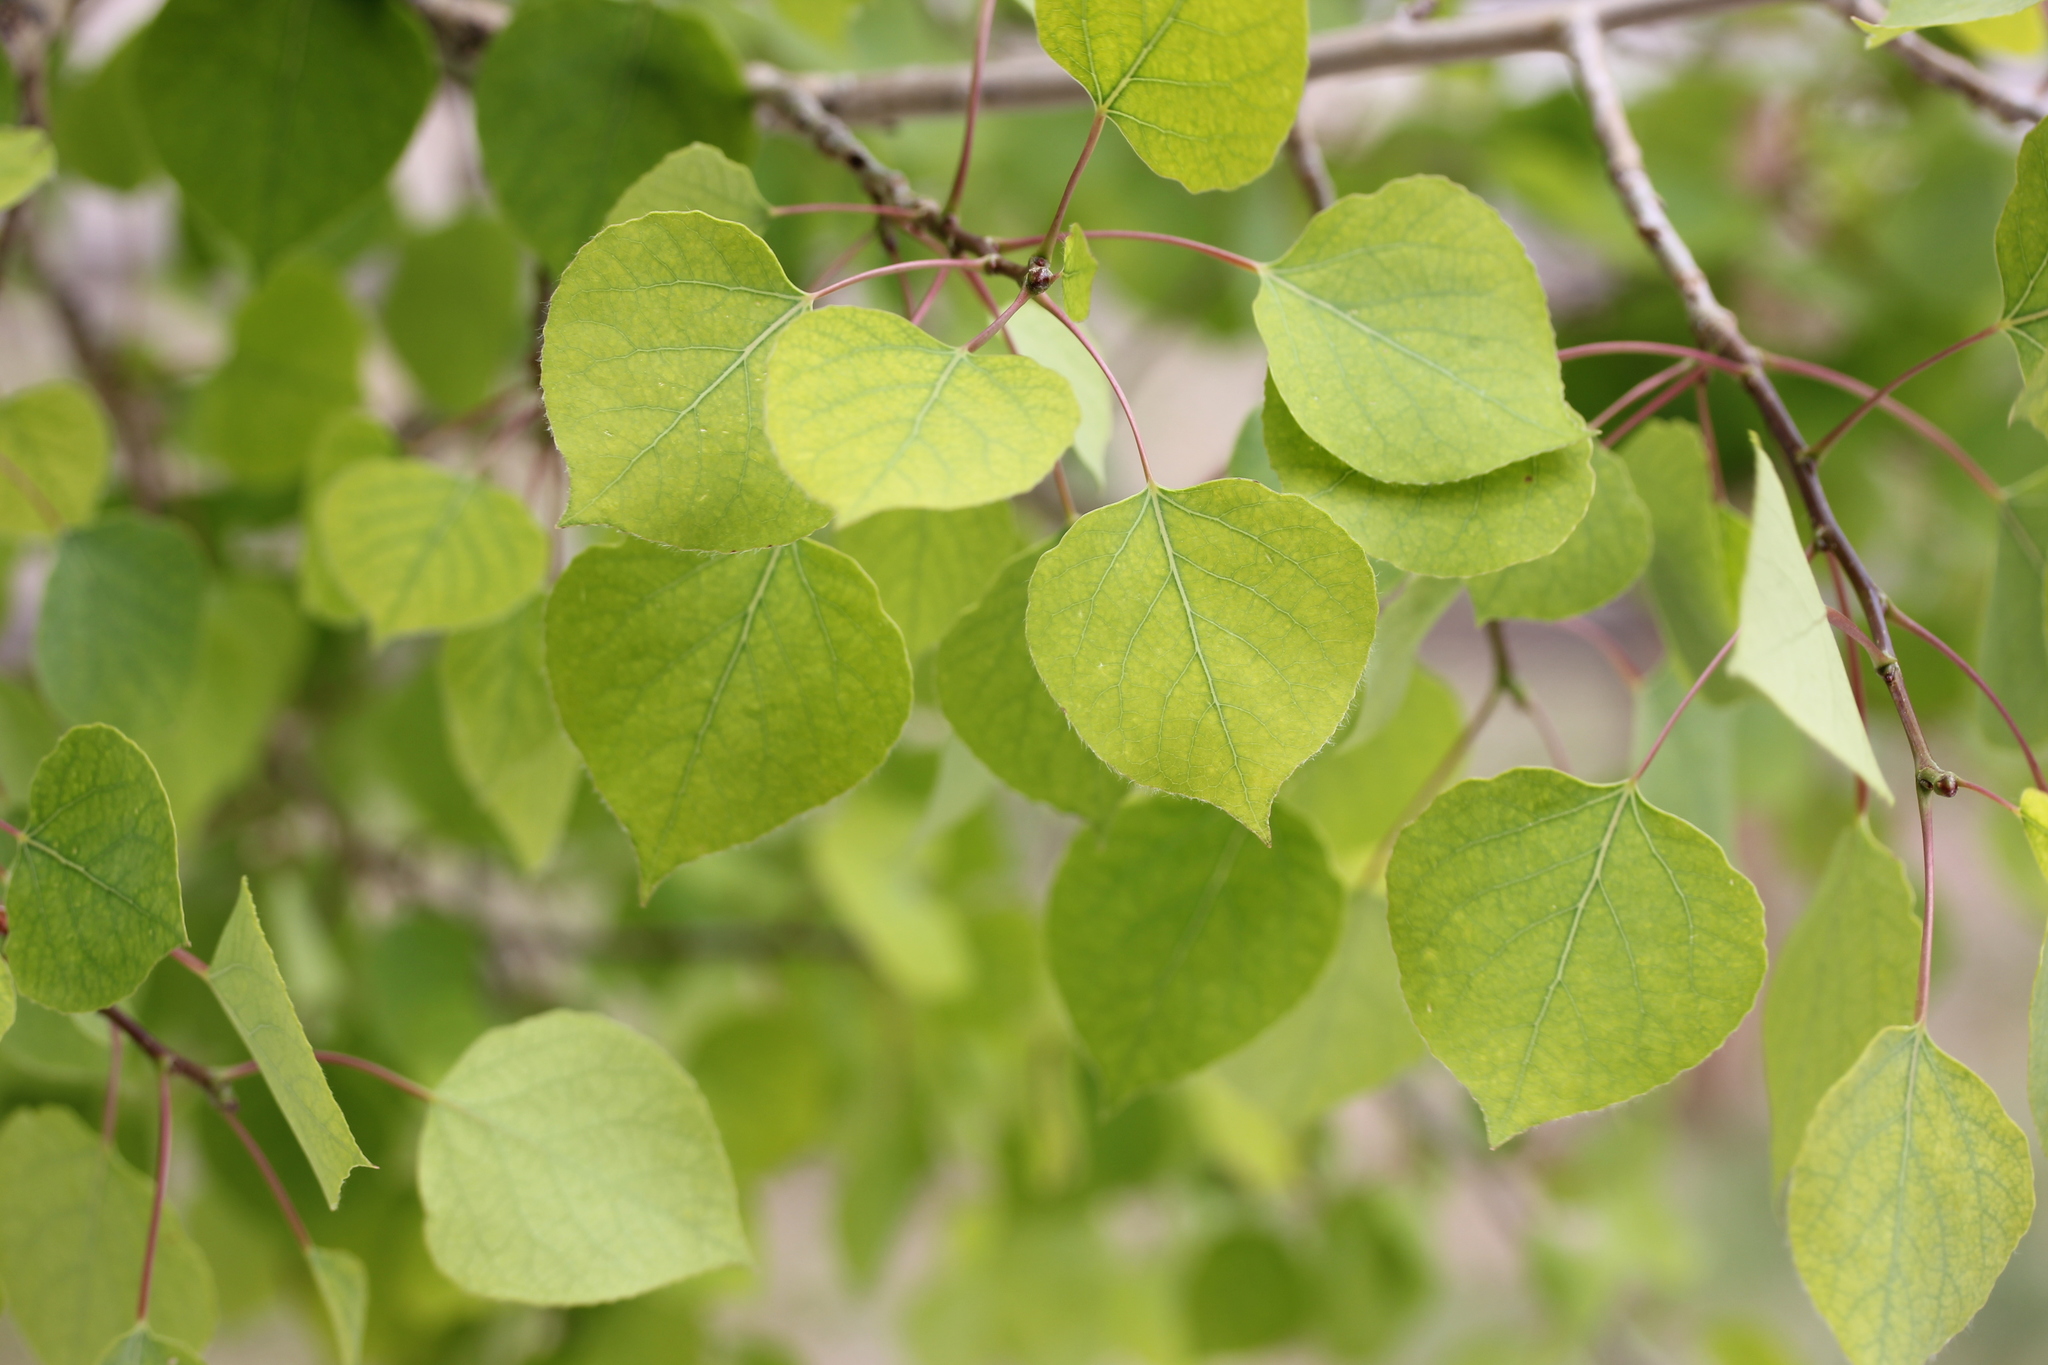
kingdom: Plantae
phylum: Tracheophyta
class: Magnoliopsida
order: Malpighiales
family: Salicaceae
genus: Populus
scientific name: Populus tremuloides
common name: Quaking aspen
